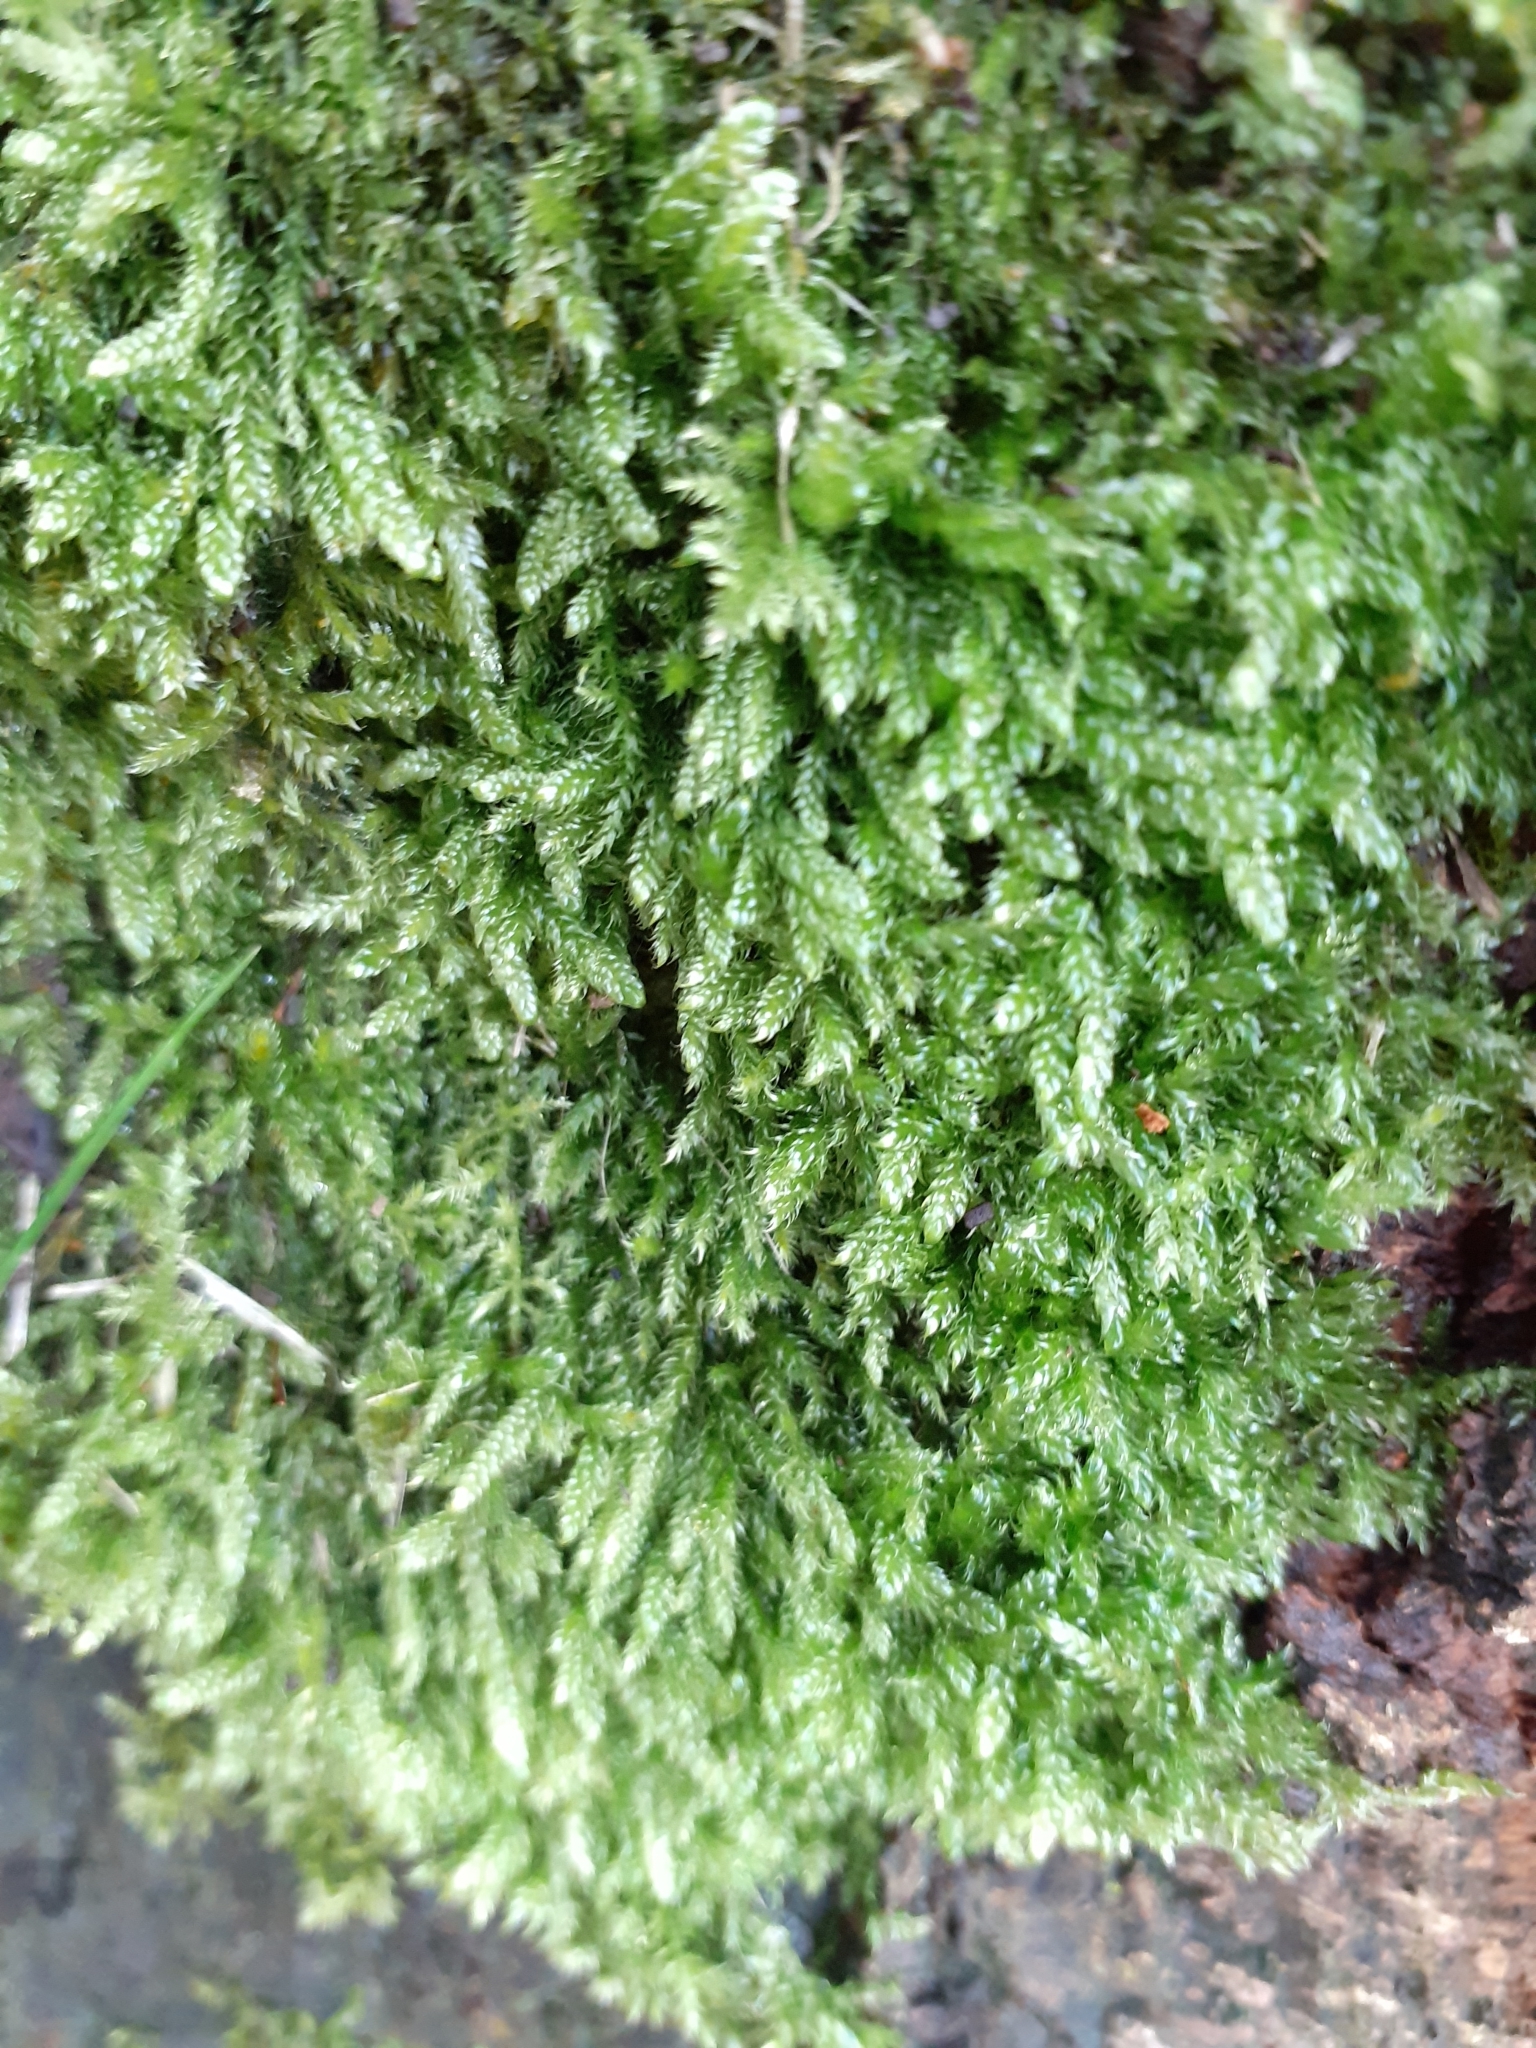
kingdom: Plantae
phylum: Bryophyta
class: Bryopsida
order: Hypnales
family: Hypnaceae
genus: Hypnum
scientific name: Hypnum cupressiforme
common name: Cypress-leaved plait-moss
